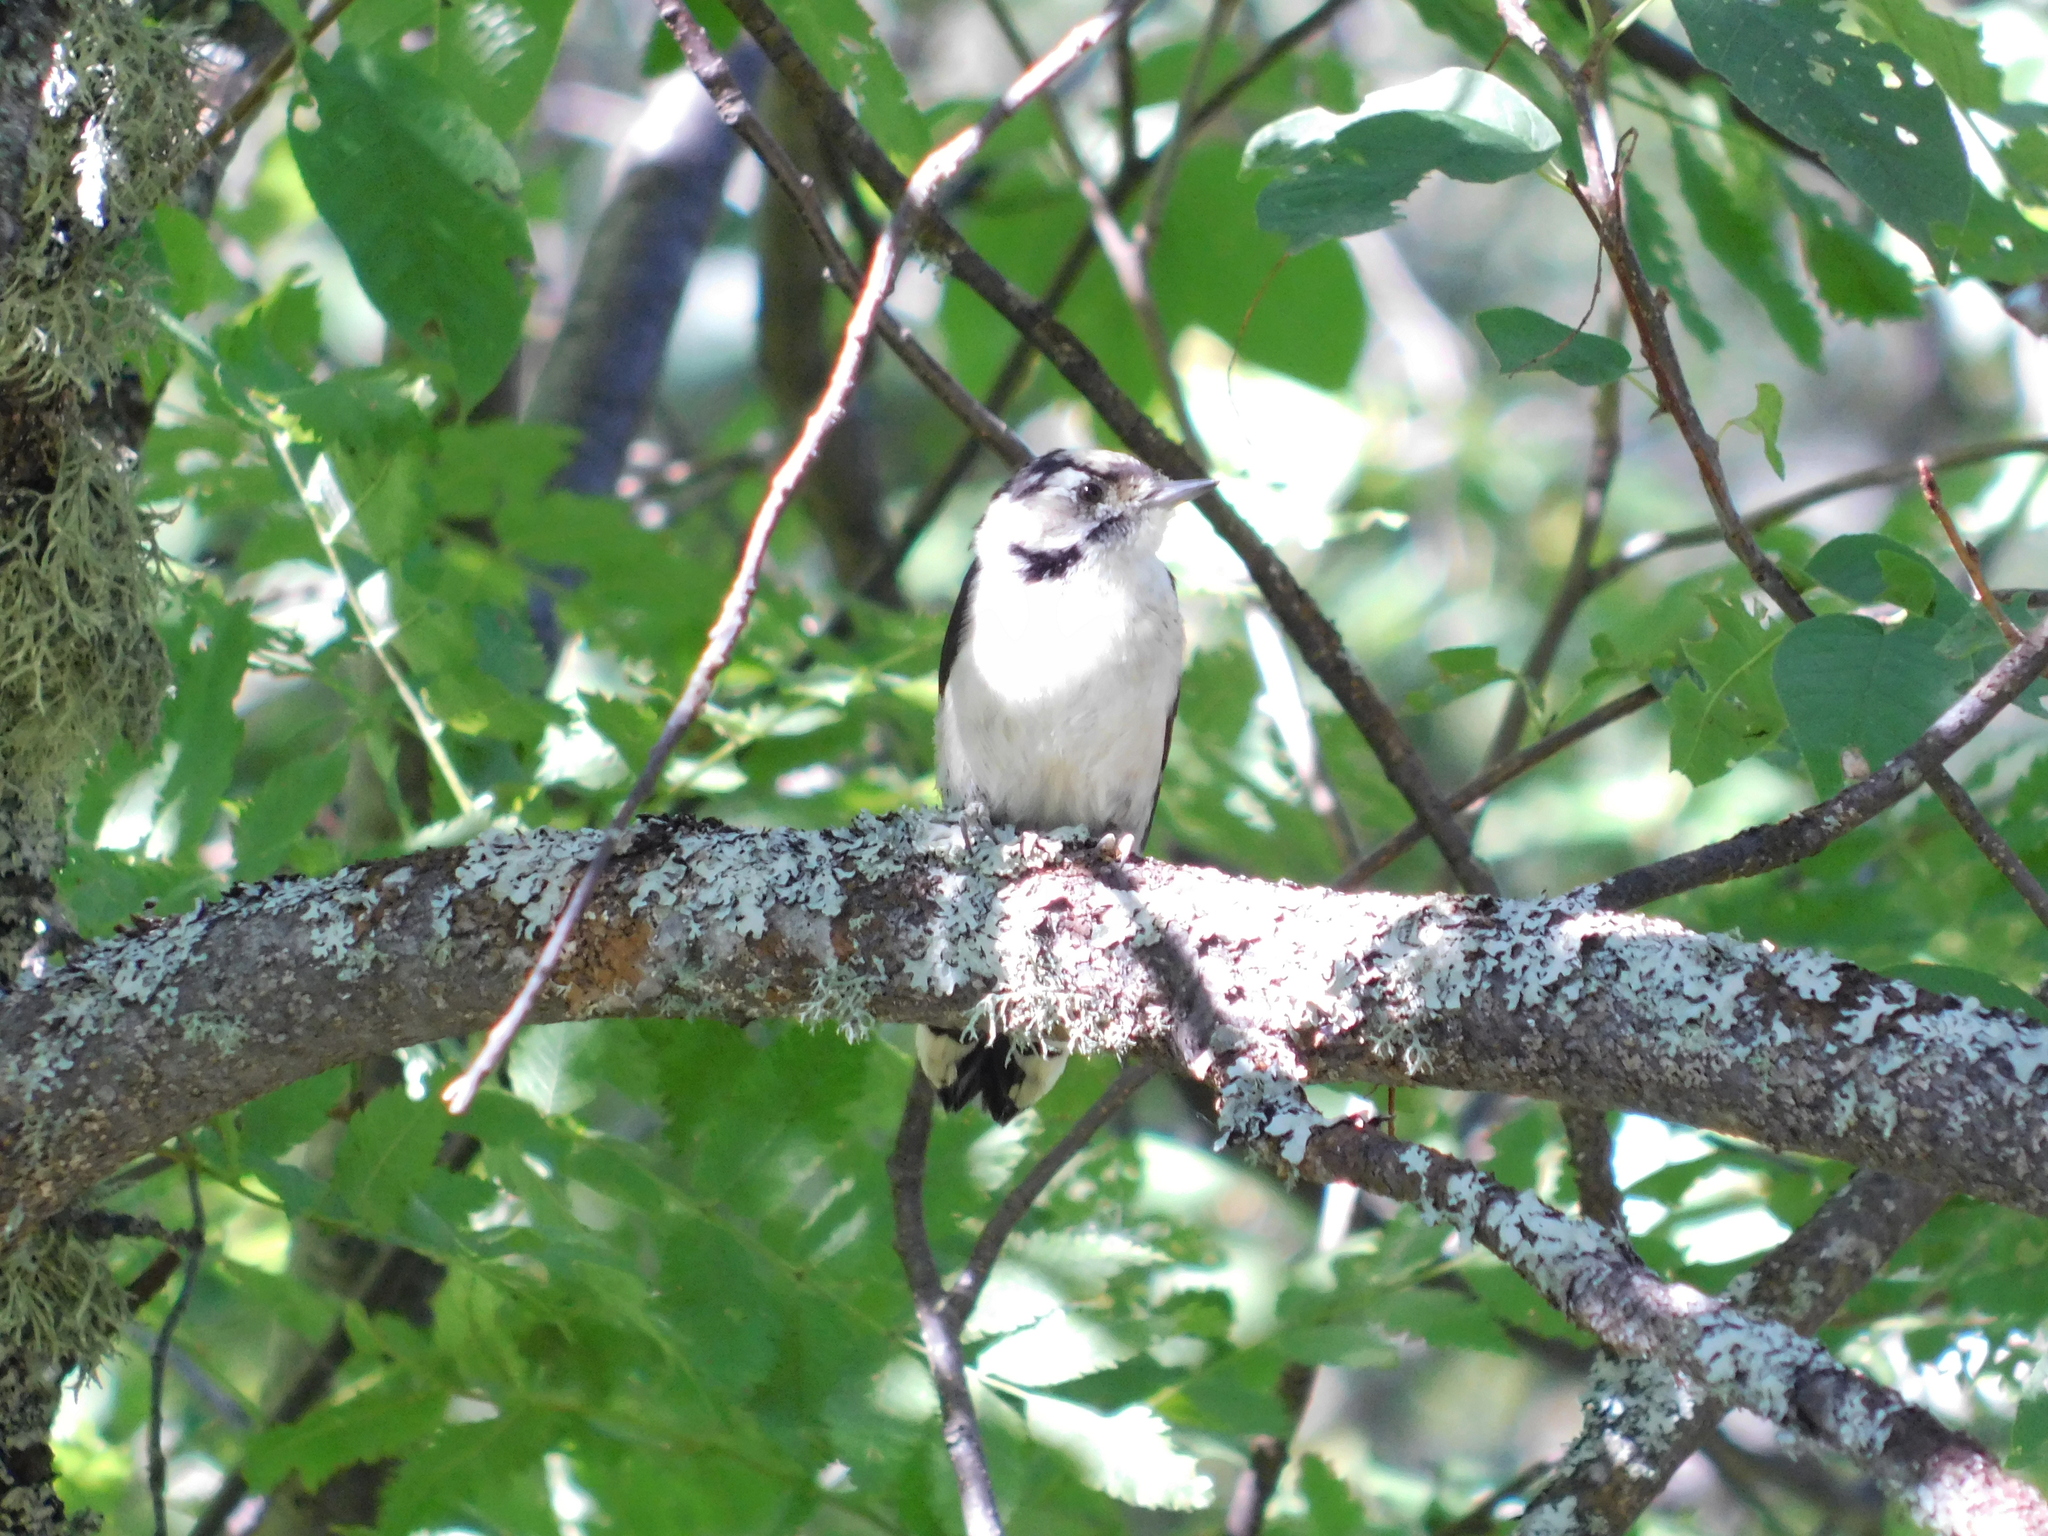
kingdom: Animalia
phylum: Chordata
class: Aves
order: Piciformes
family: Picidae
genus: Dryobates
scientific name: Dryobates minor
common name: Lesser spotted woodpecker
